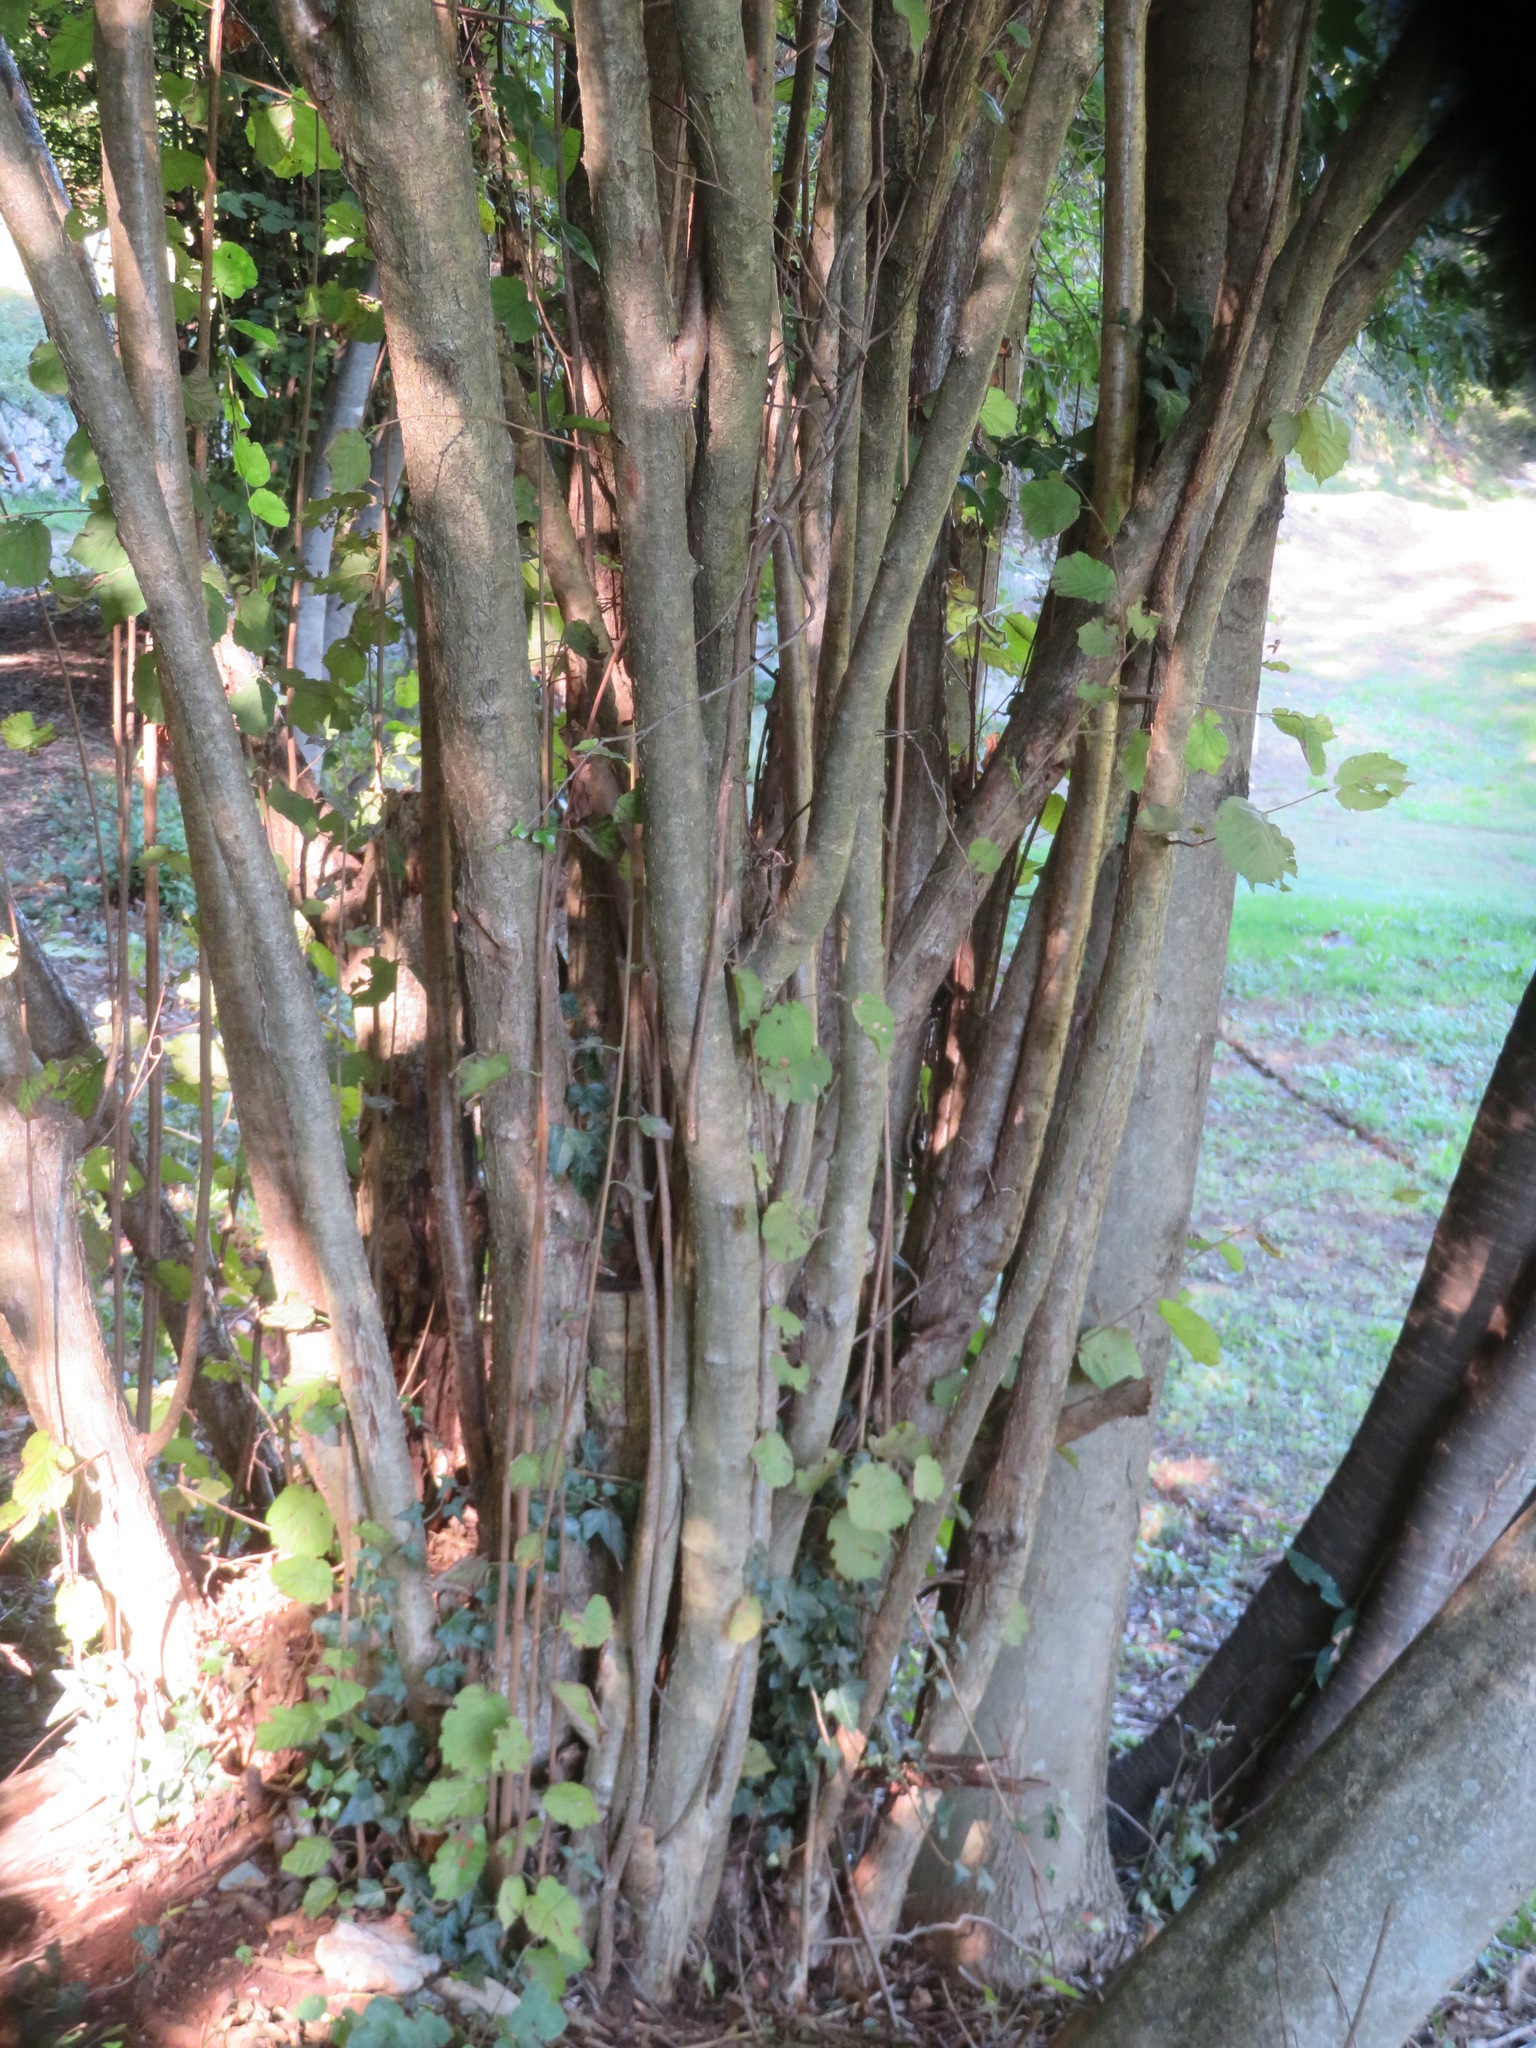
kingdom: Plantae
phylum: Tracheophyta
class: Magnoliopsida
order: Fagales
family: Betulaceae
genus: Corylus
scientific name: Corylus avellana
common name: European hazel
